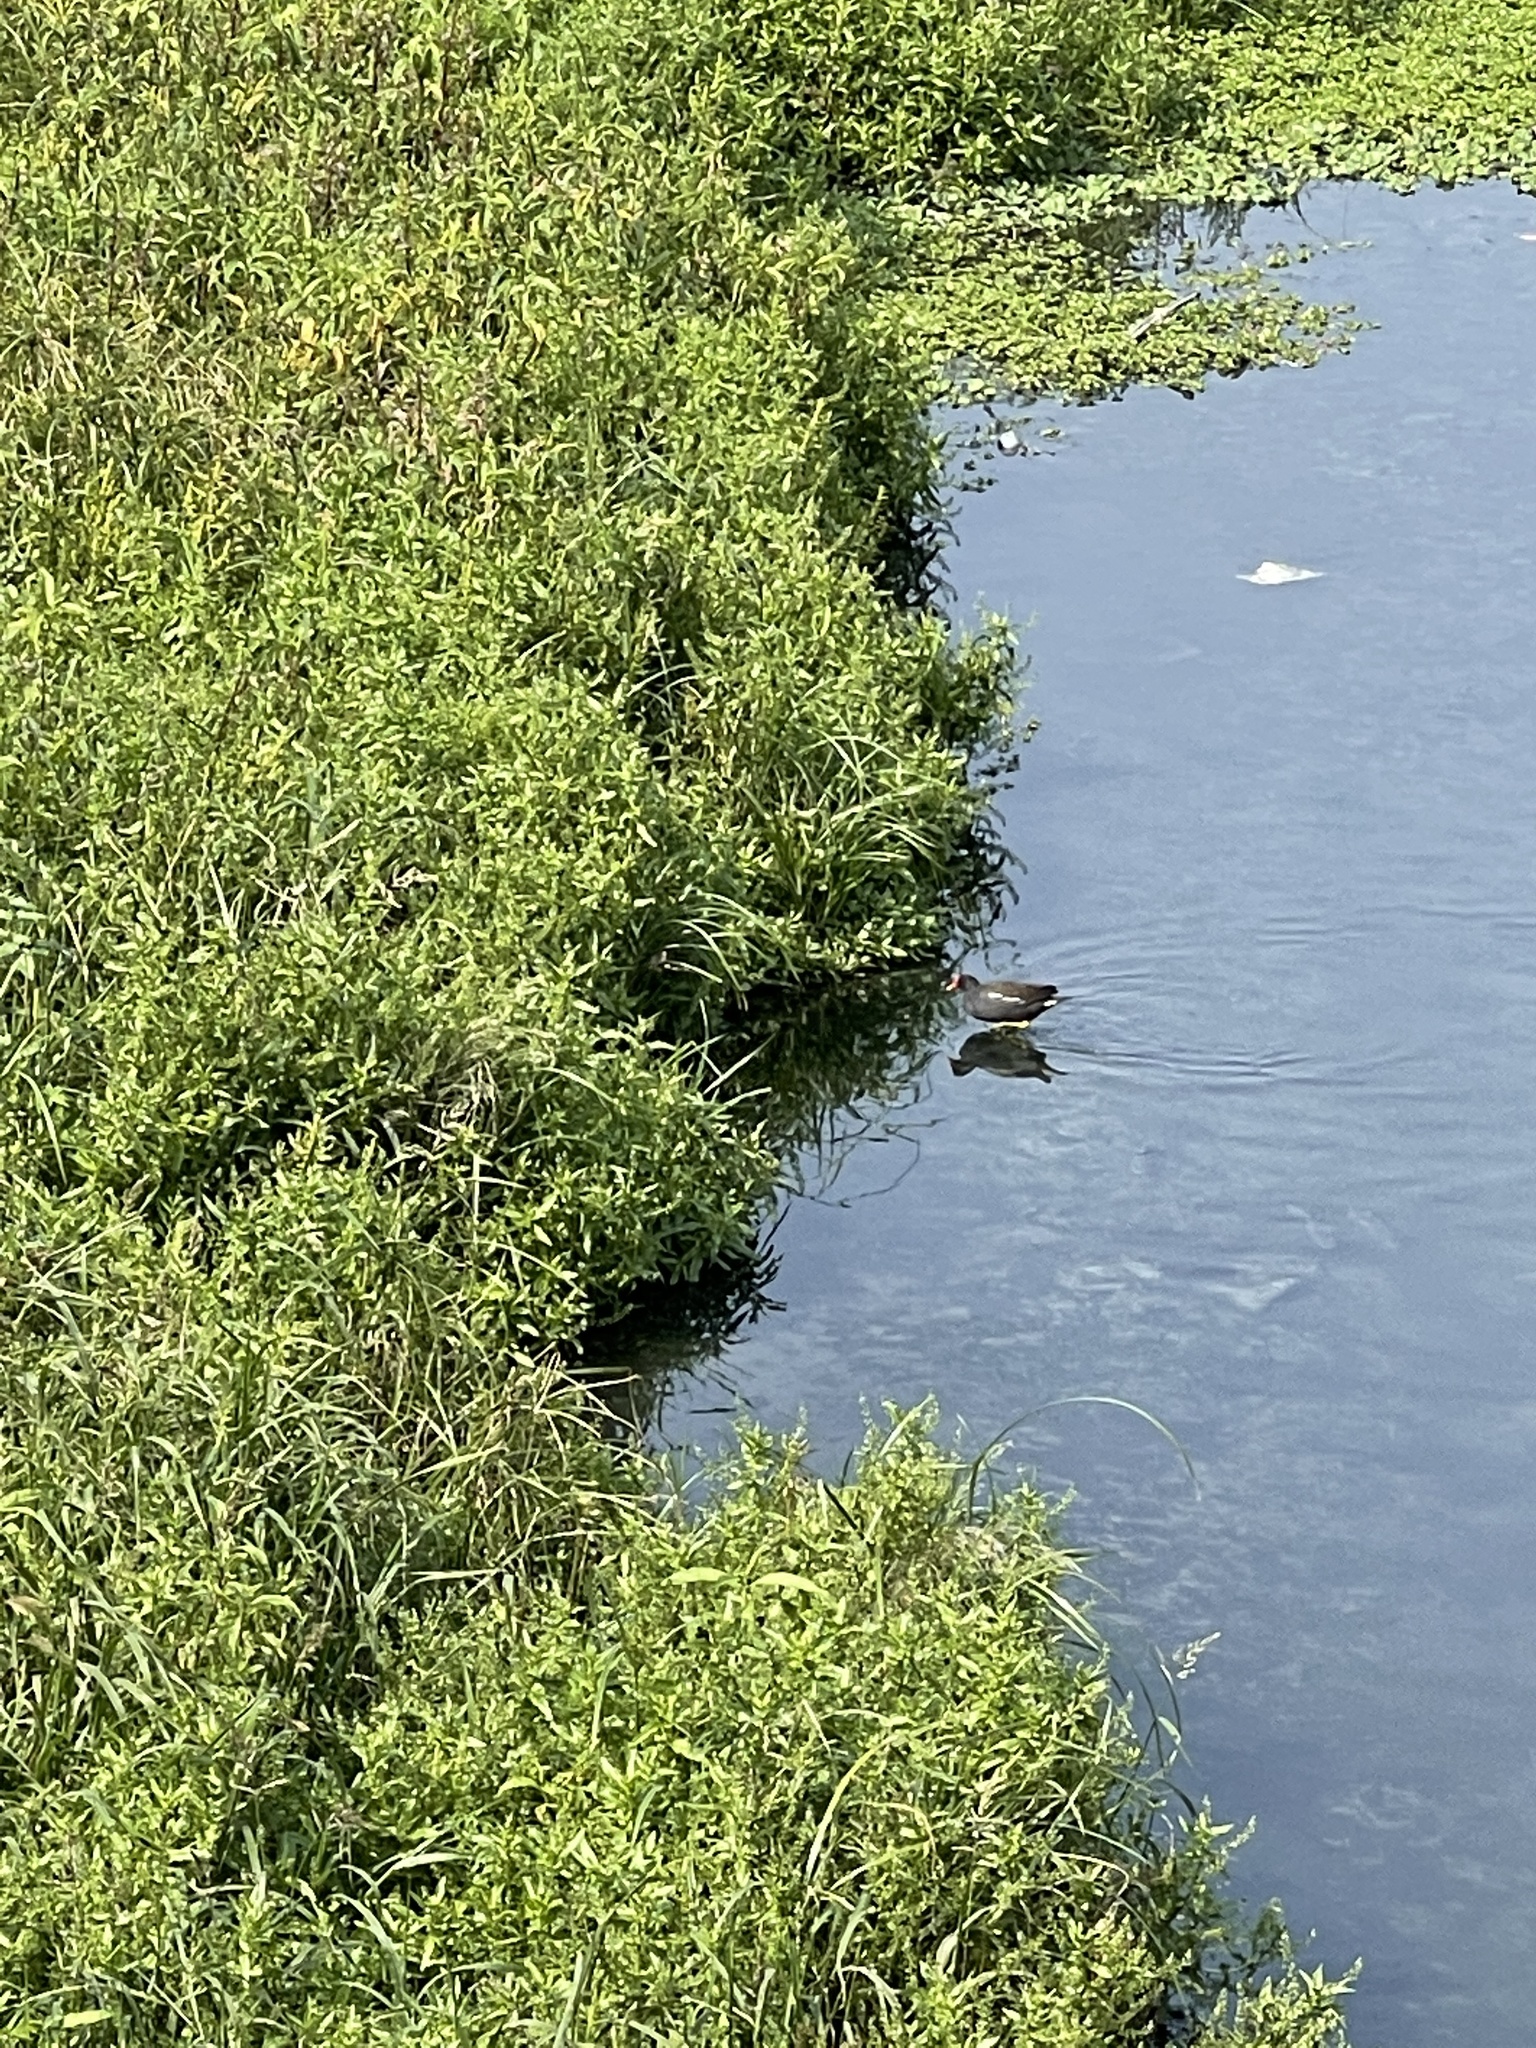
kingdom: Animalia
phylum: Chordata
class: Aves
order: Gruiformes
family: Rallidae
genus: Gallinula
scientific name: Gallinula chloropus
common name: Common moorhen
